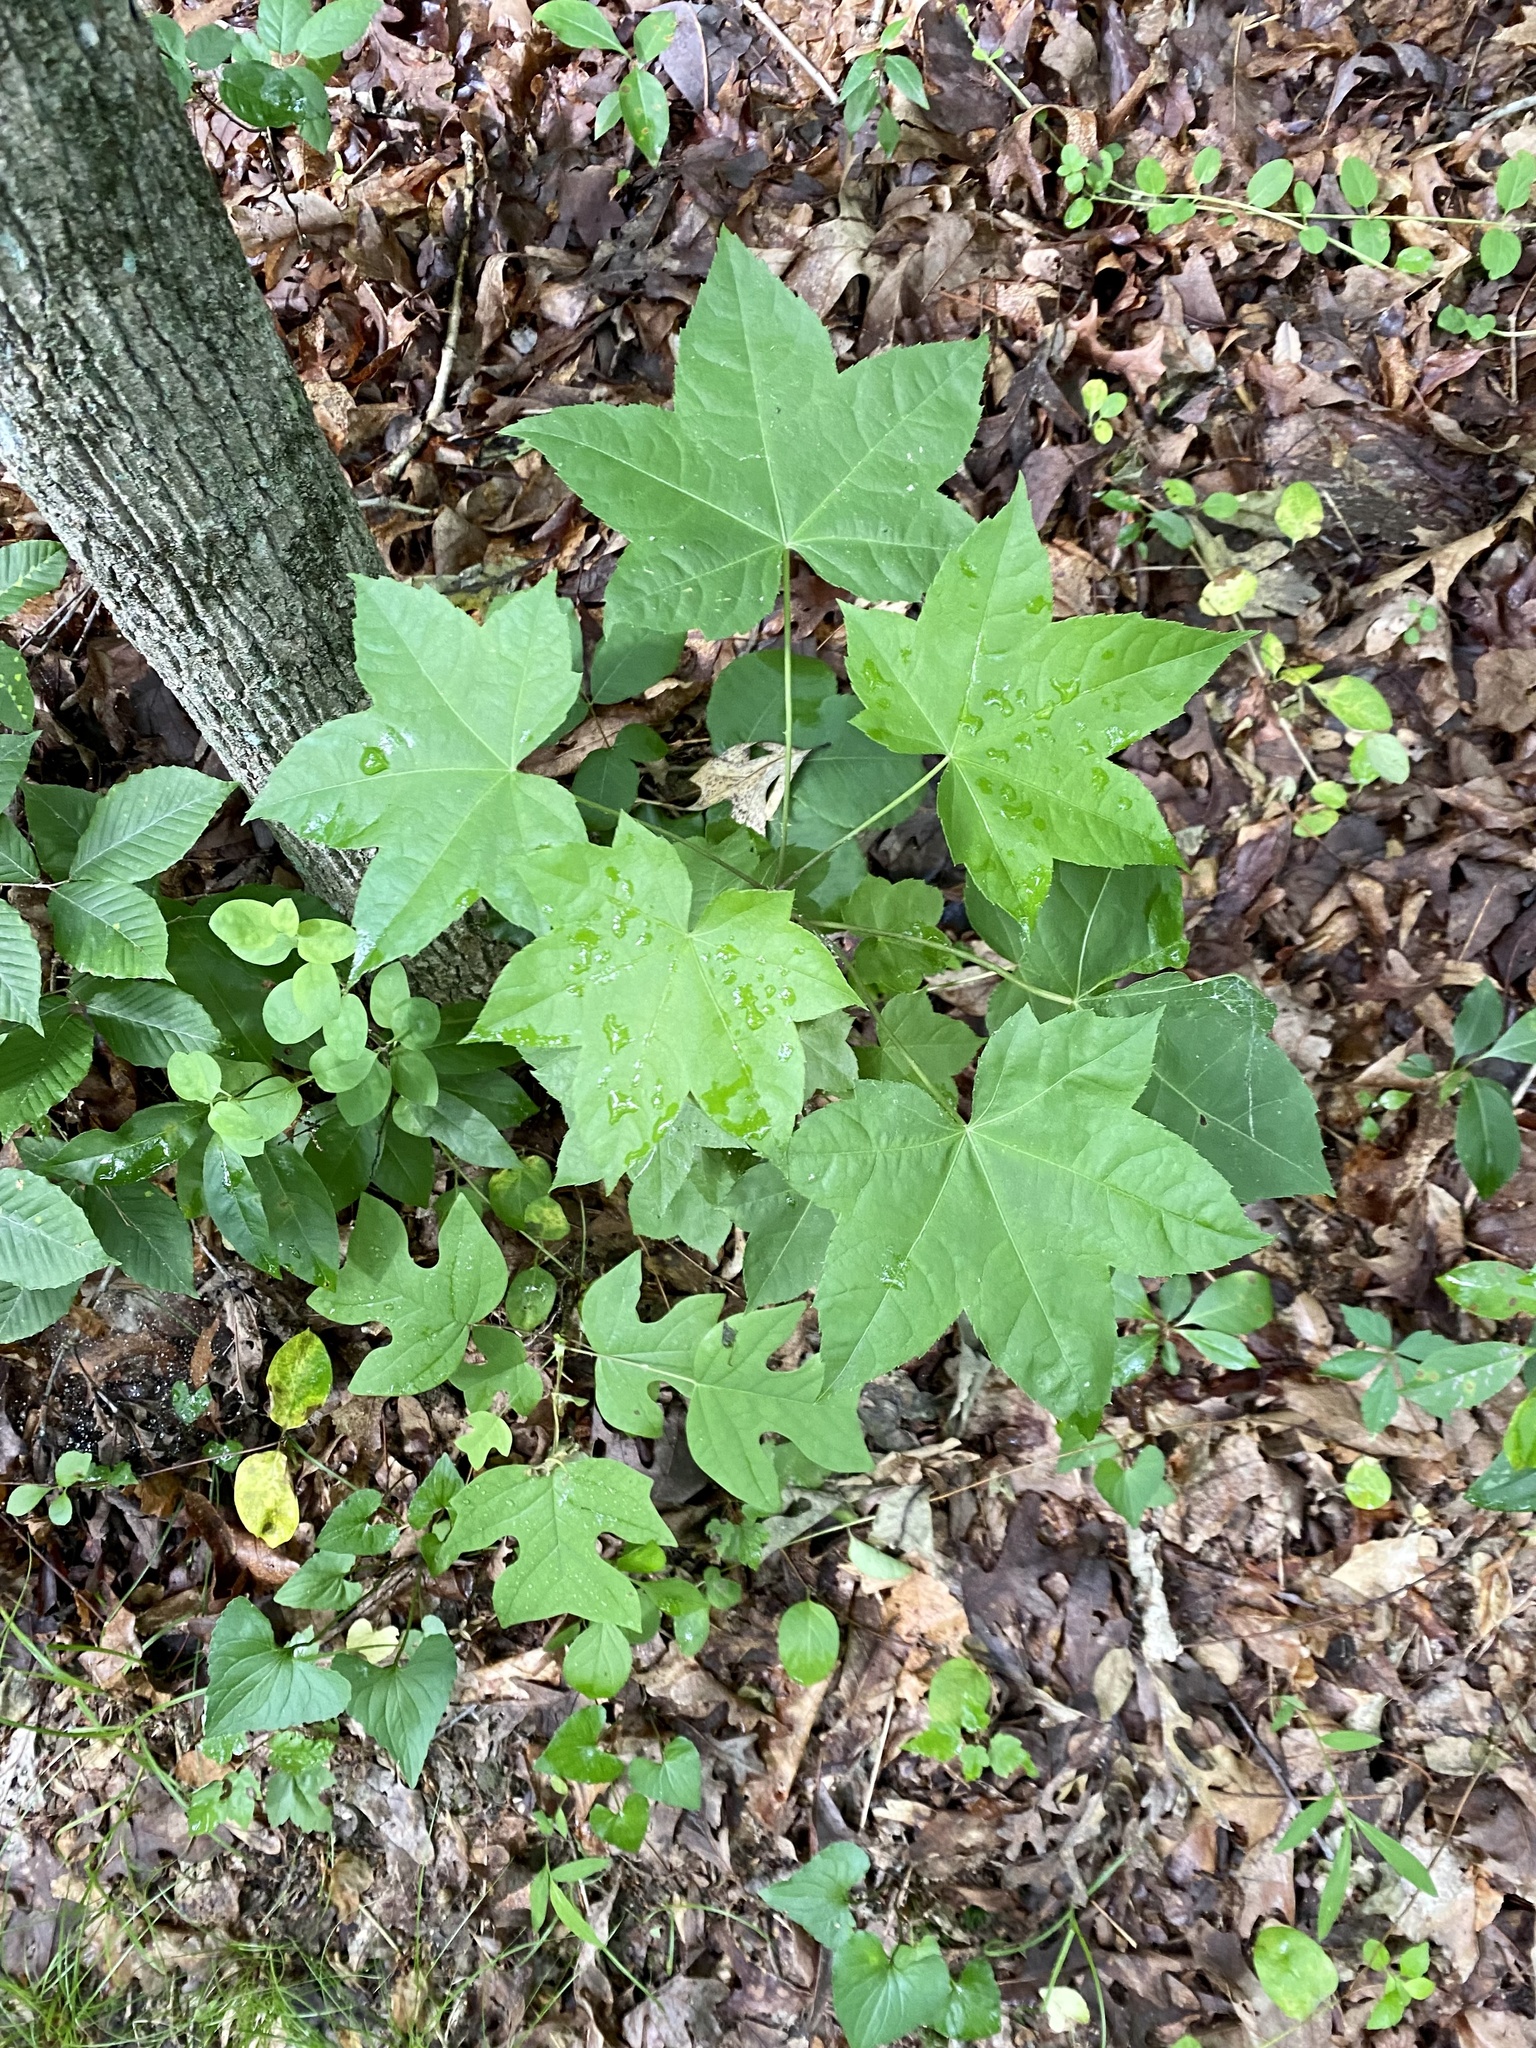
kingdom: Plantae
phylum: Tracheophyta
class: Magnoliopsida
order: Apiales
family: Araliaceae
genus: Kalopanax
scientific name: Kalopanax septemlobus
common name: Castor aralia
